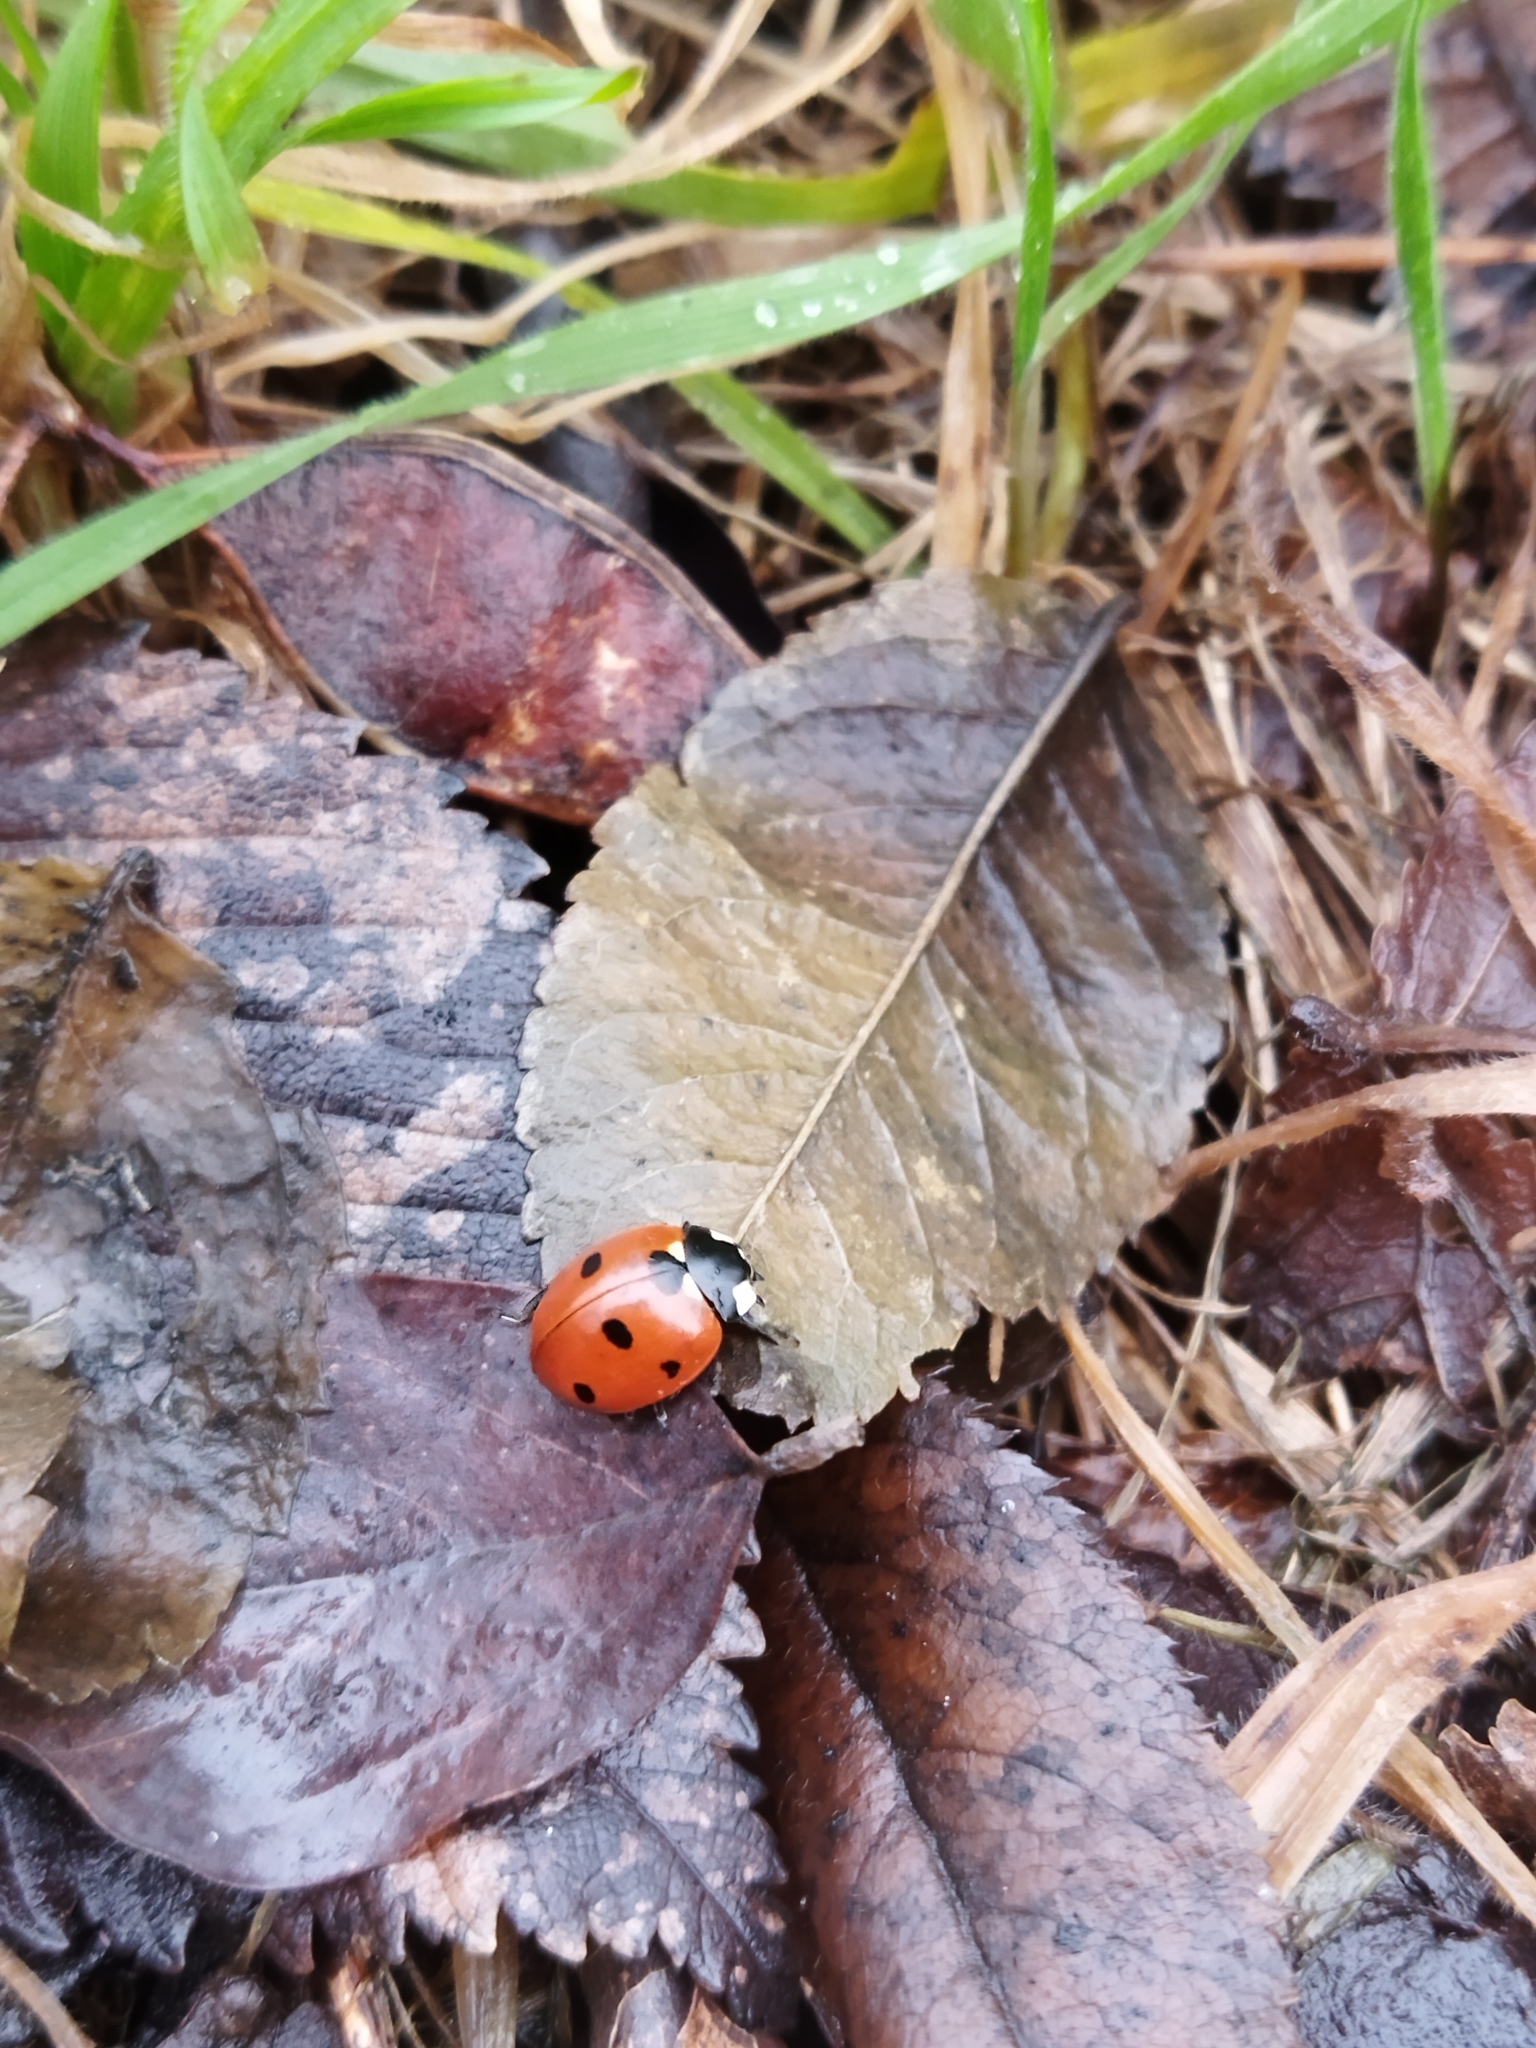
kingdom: Animalia
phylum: Arthropoda
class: Insecta
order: Coleoptera
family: Coccinellidae
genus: Coccinella
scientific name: Coccinella septempunctata
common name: Sevenspotted lady beetle
